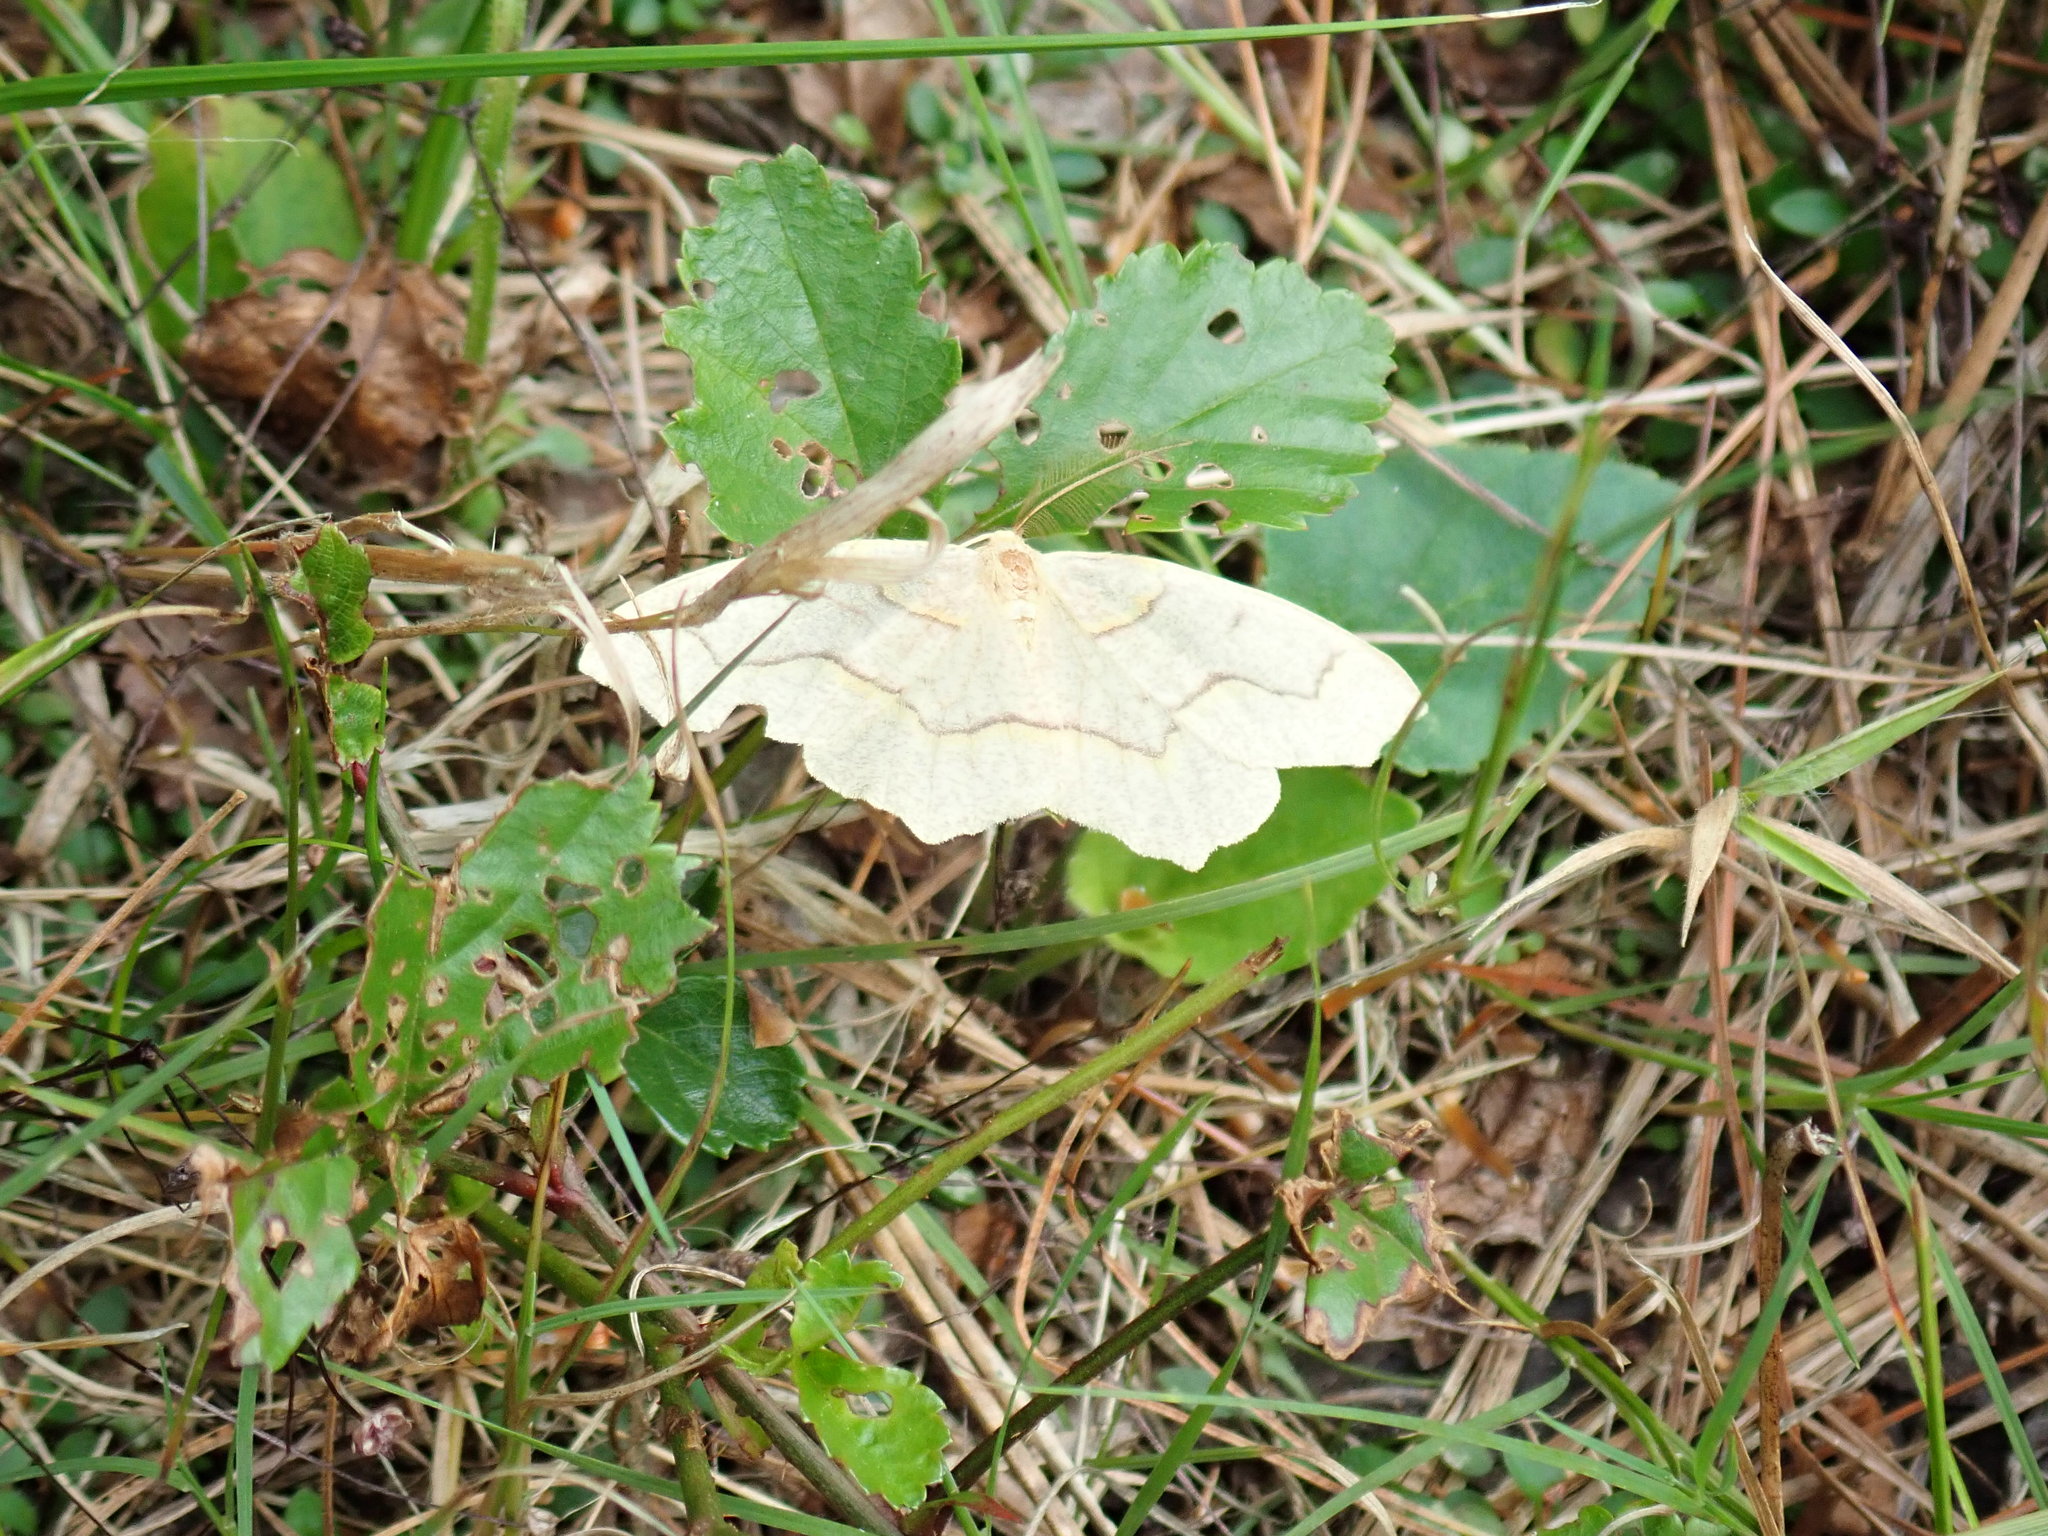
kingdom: Animalia
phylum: Arthropoda
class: Insecta
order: Lepidoptera
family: Geometridae
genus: Lambdina
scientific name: Lambdina fiscellaria
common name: Hemlock looper
